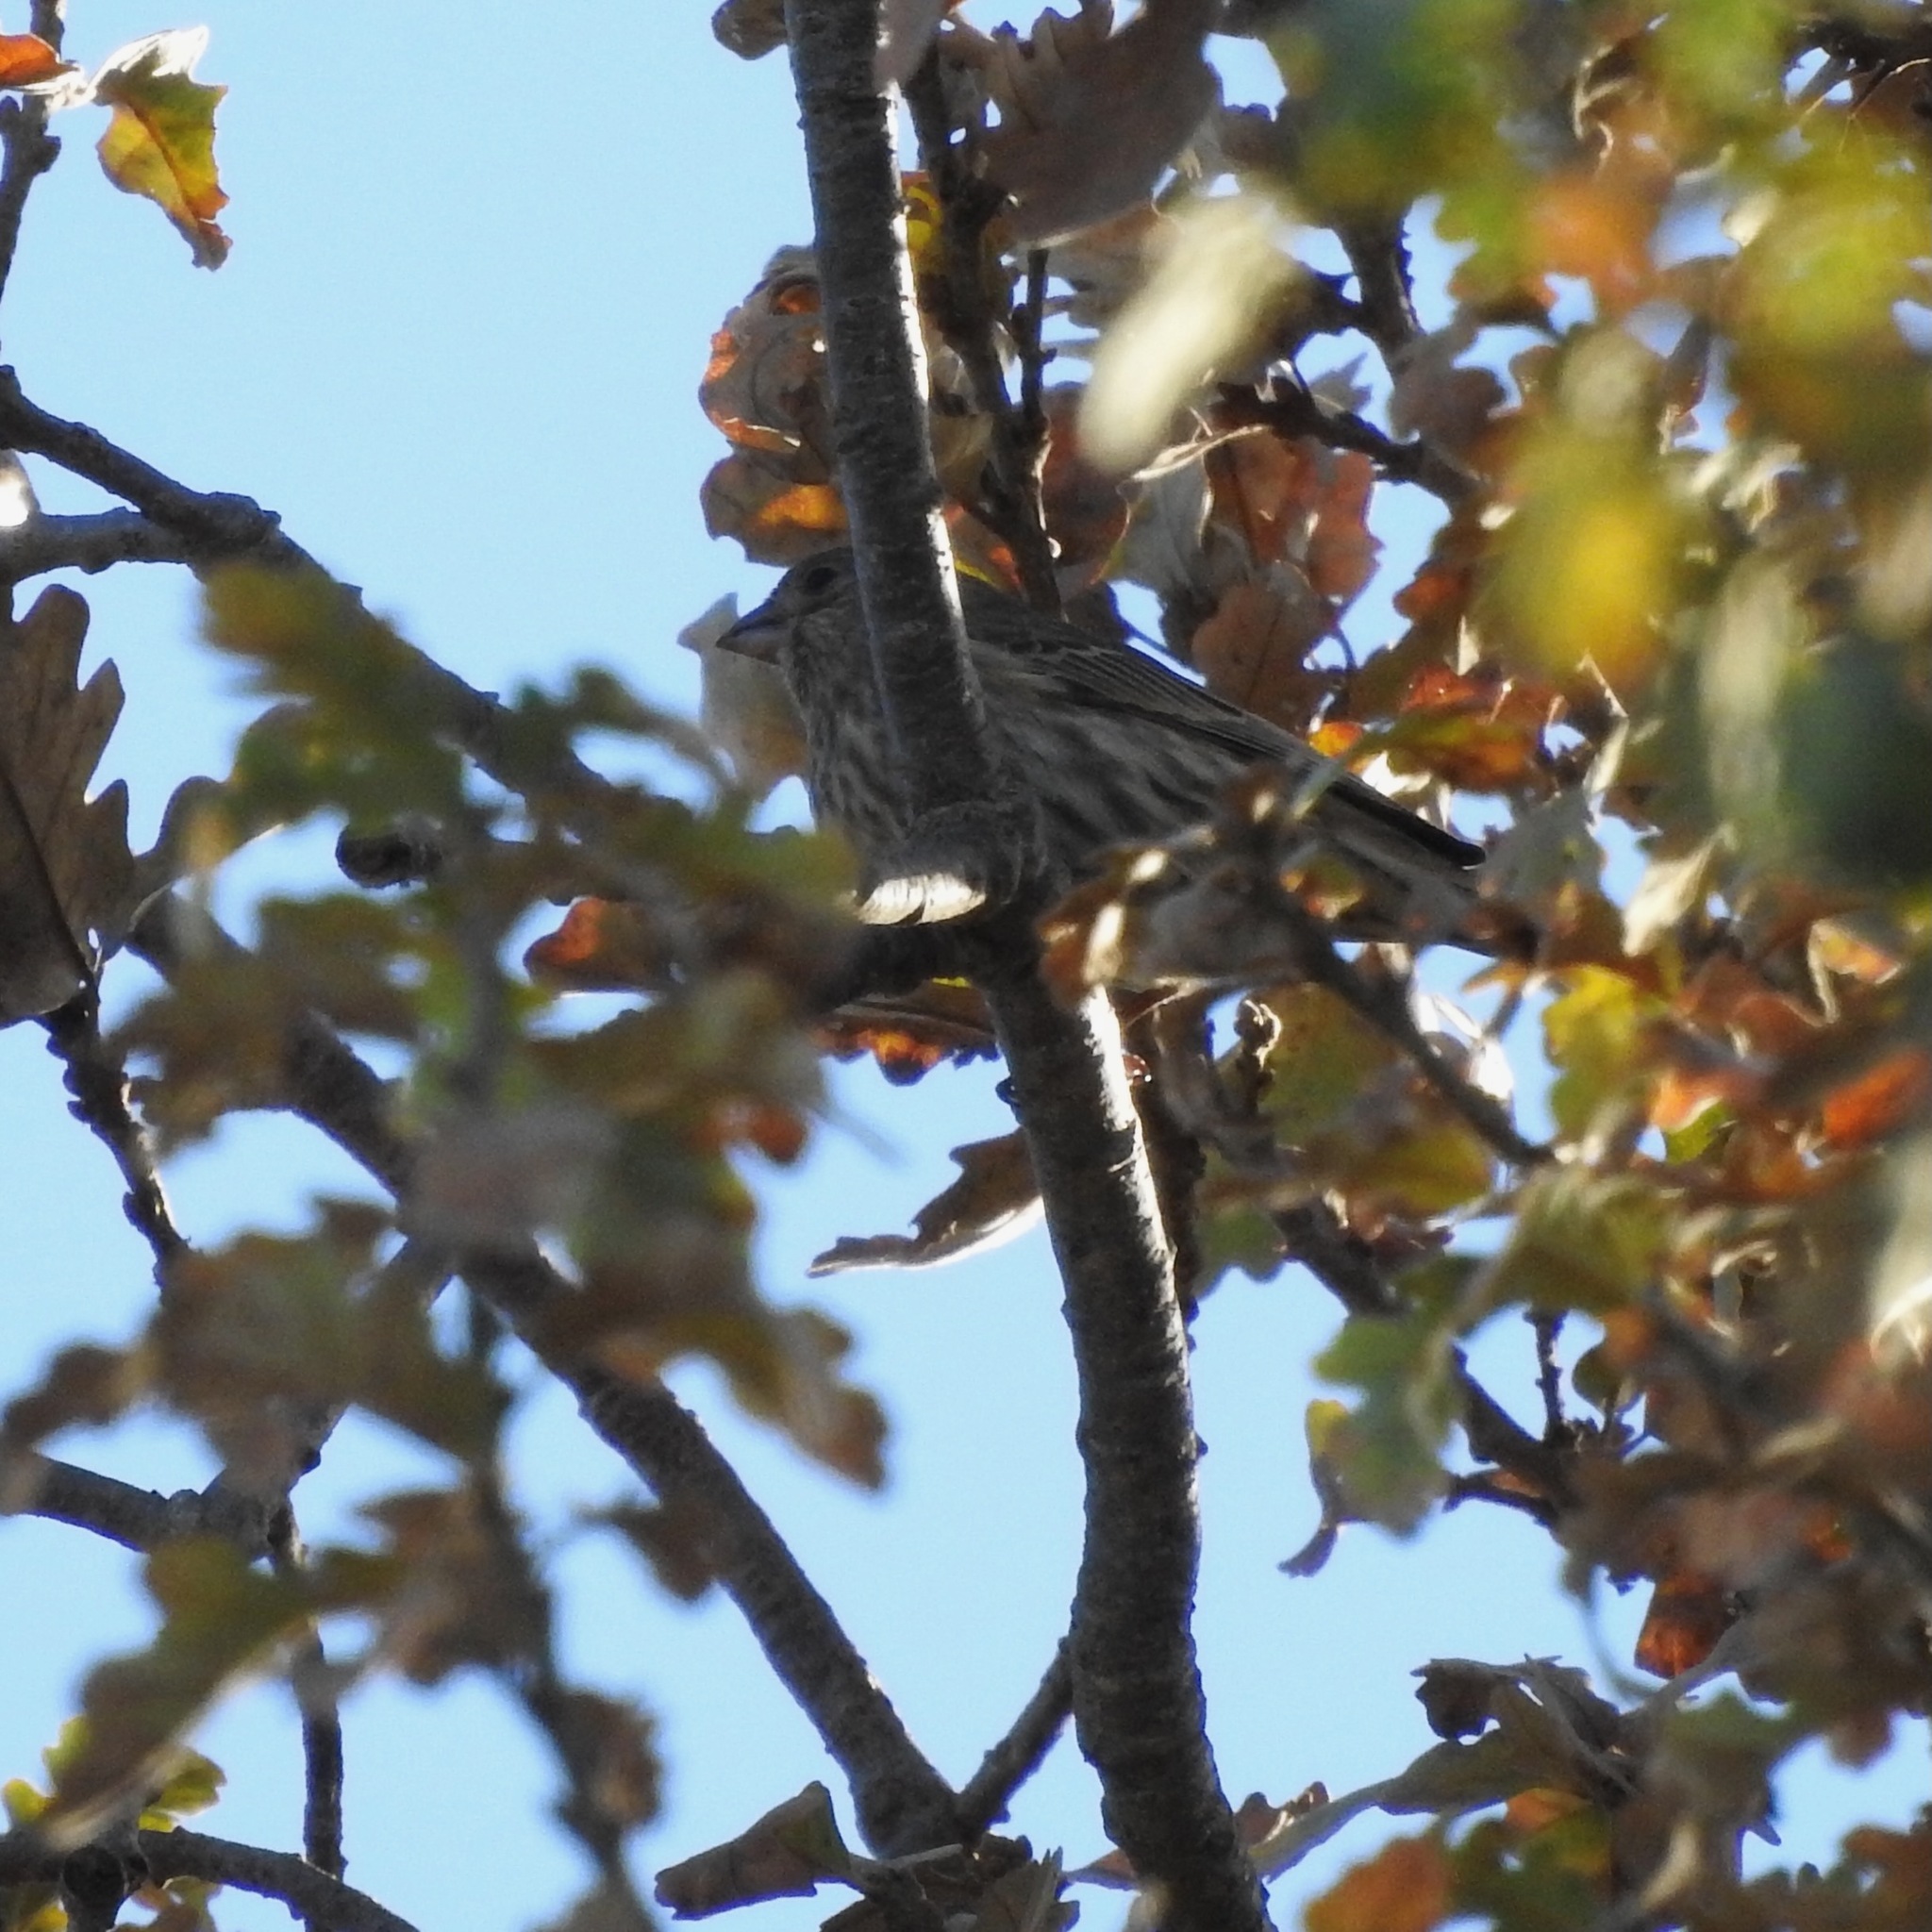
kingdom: Animalia
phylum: Chordata
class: Aves
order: Passeriformes
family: Fringillidae
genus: Haemorhous
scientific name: Haemorhous mexicanus
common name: House finch
